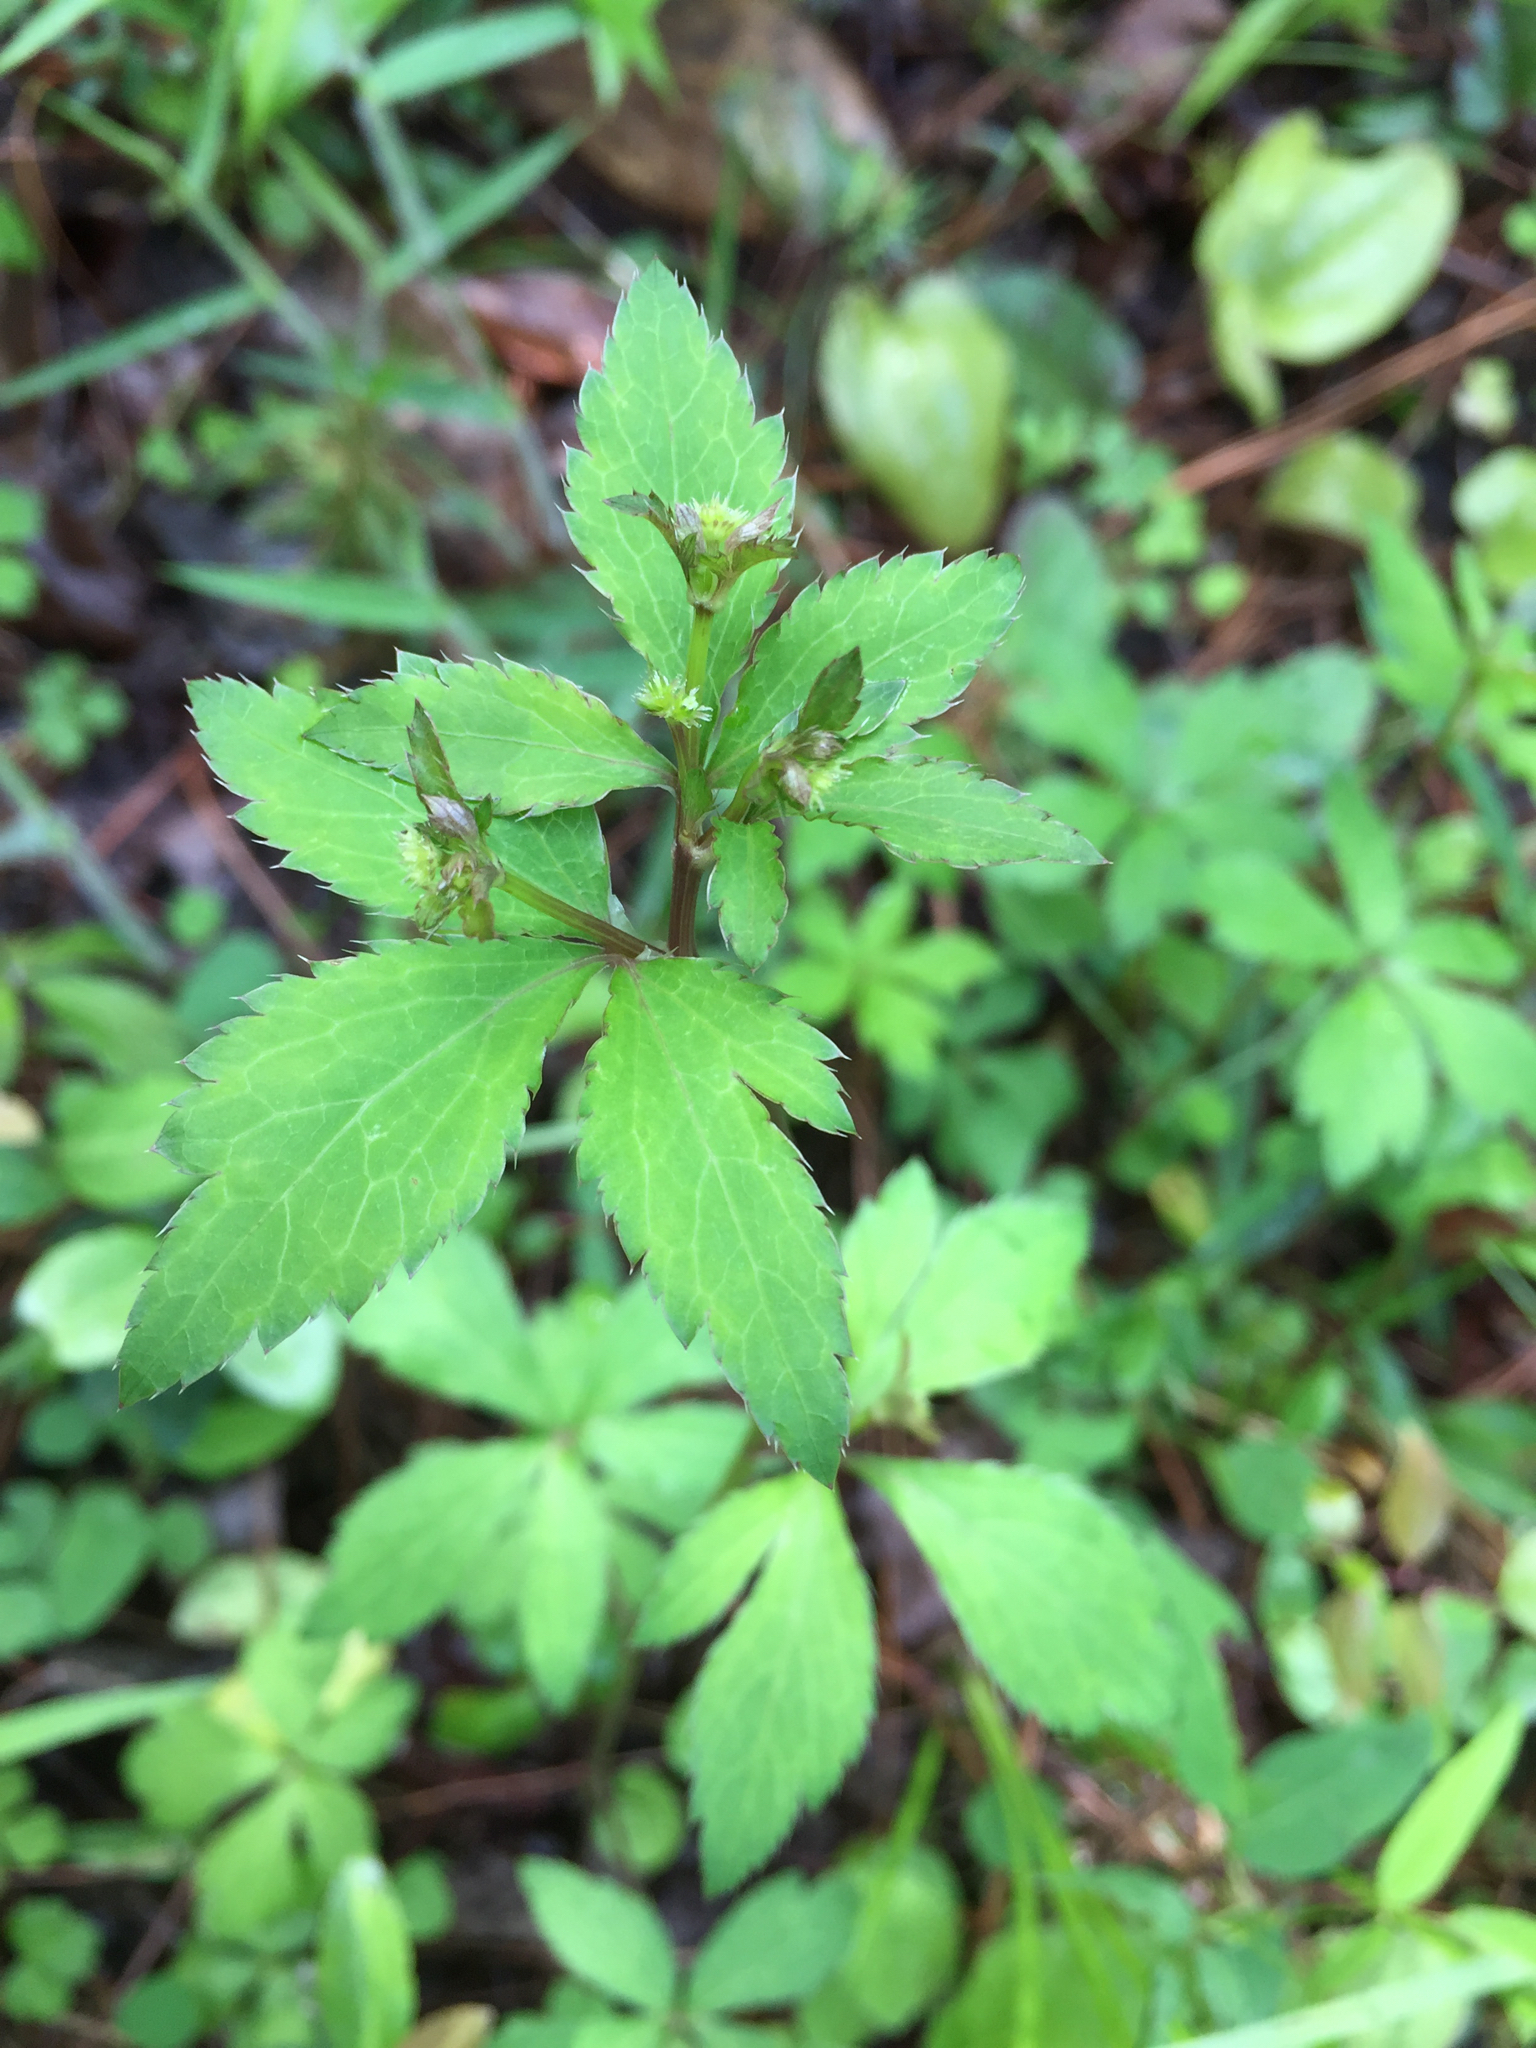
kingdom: Plantae
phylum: Tracheophyta
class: Magnoliopsida
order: Apiales
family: Apiaceae
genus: Sanicula
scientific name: Sanicula canadensis
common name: Canada sanicle
